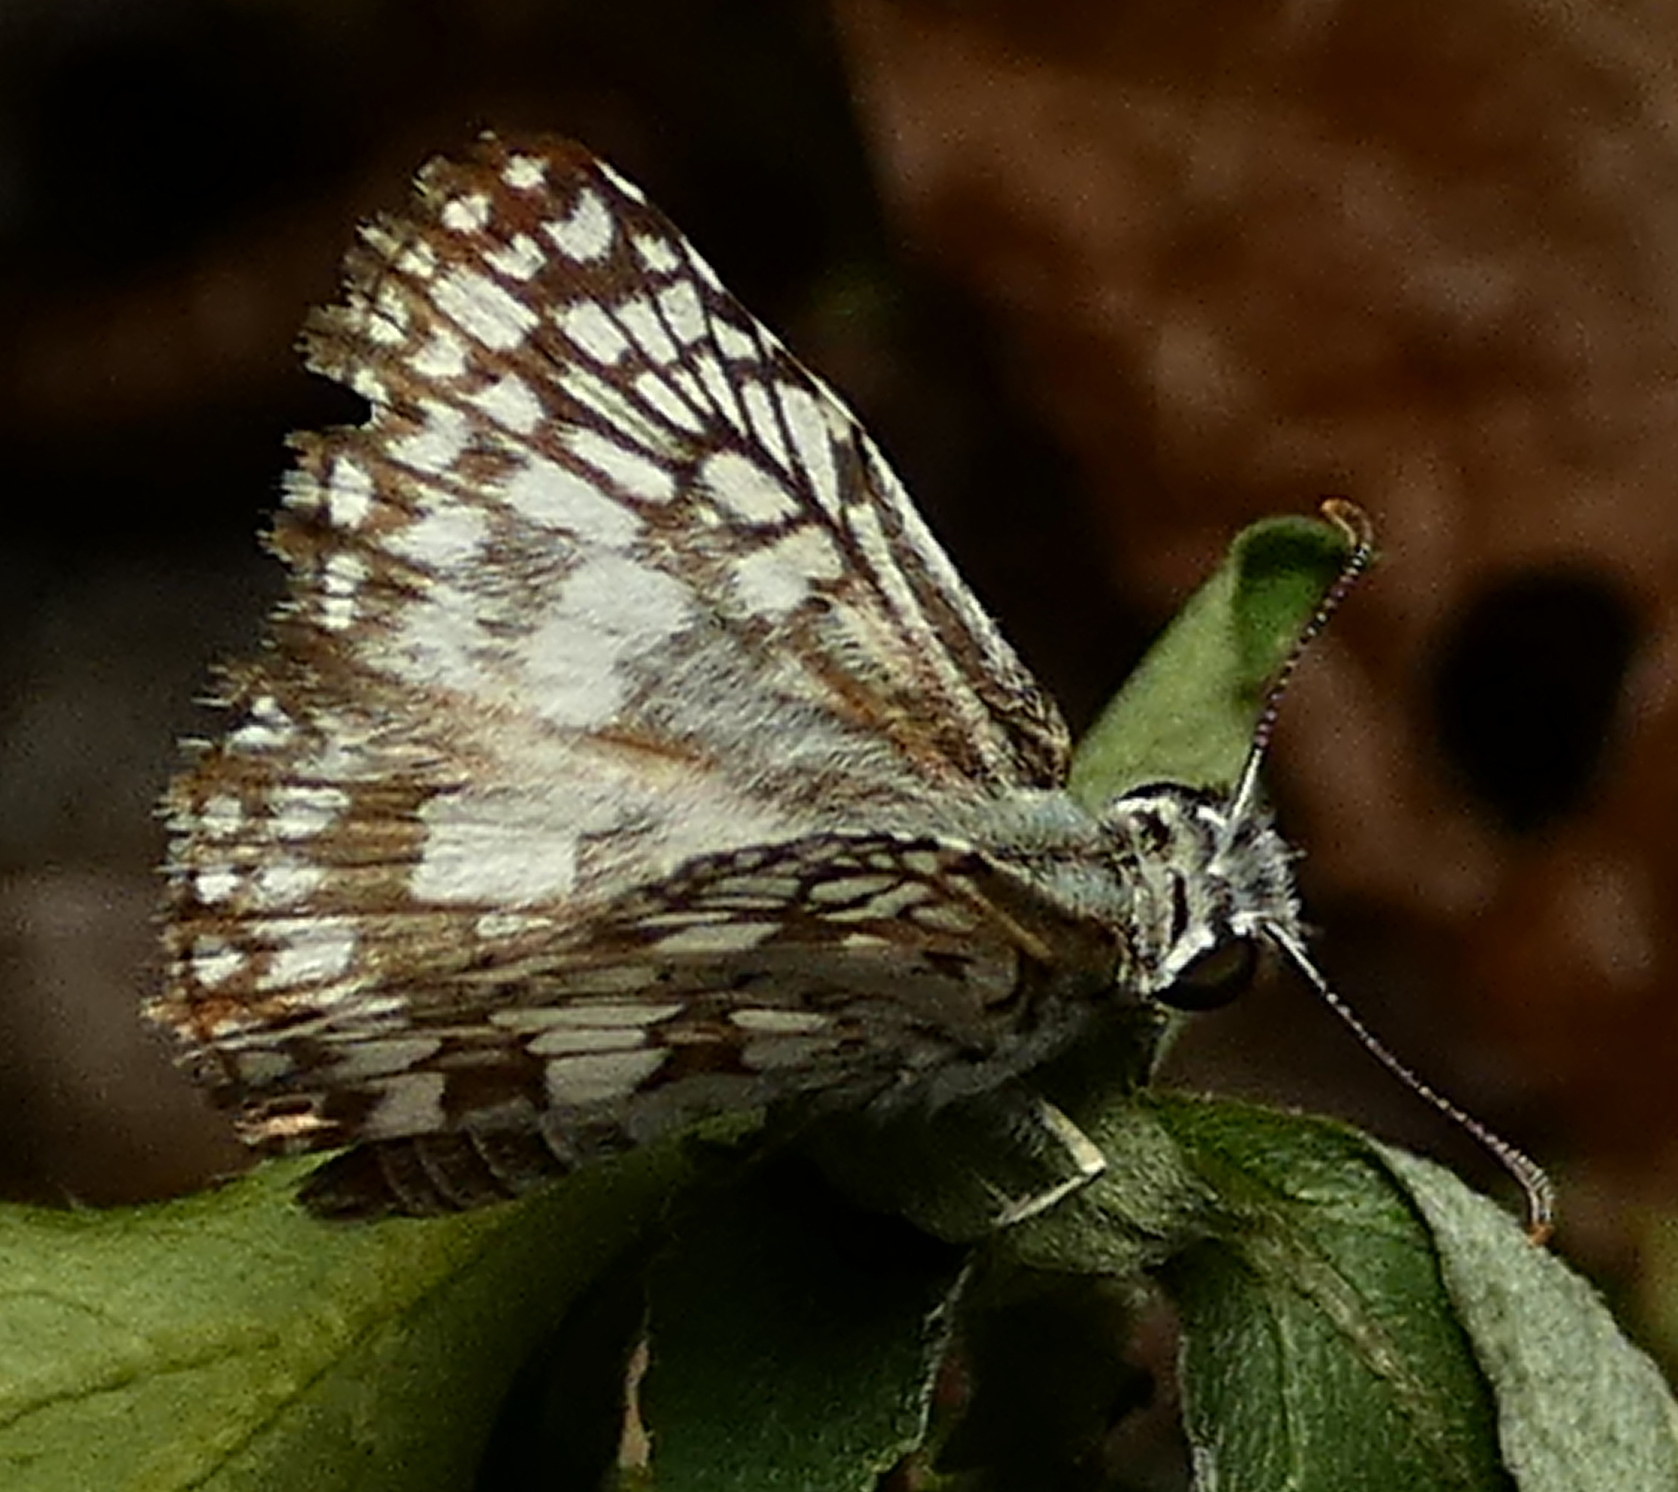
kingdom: Animalia
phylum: Arthropoda
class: Insecta
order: Lepidoptera
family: Hesperiidae
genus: Pyrgus
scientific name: Pyrgus oileus
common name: Tropical checkered-skipper
